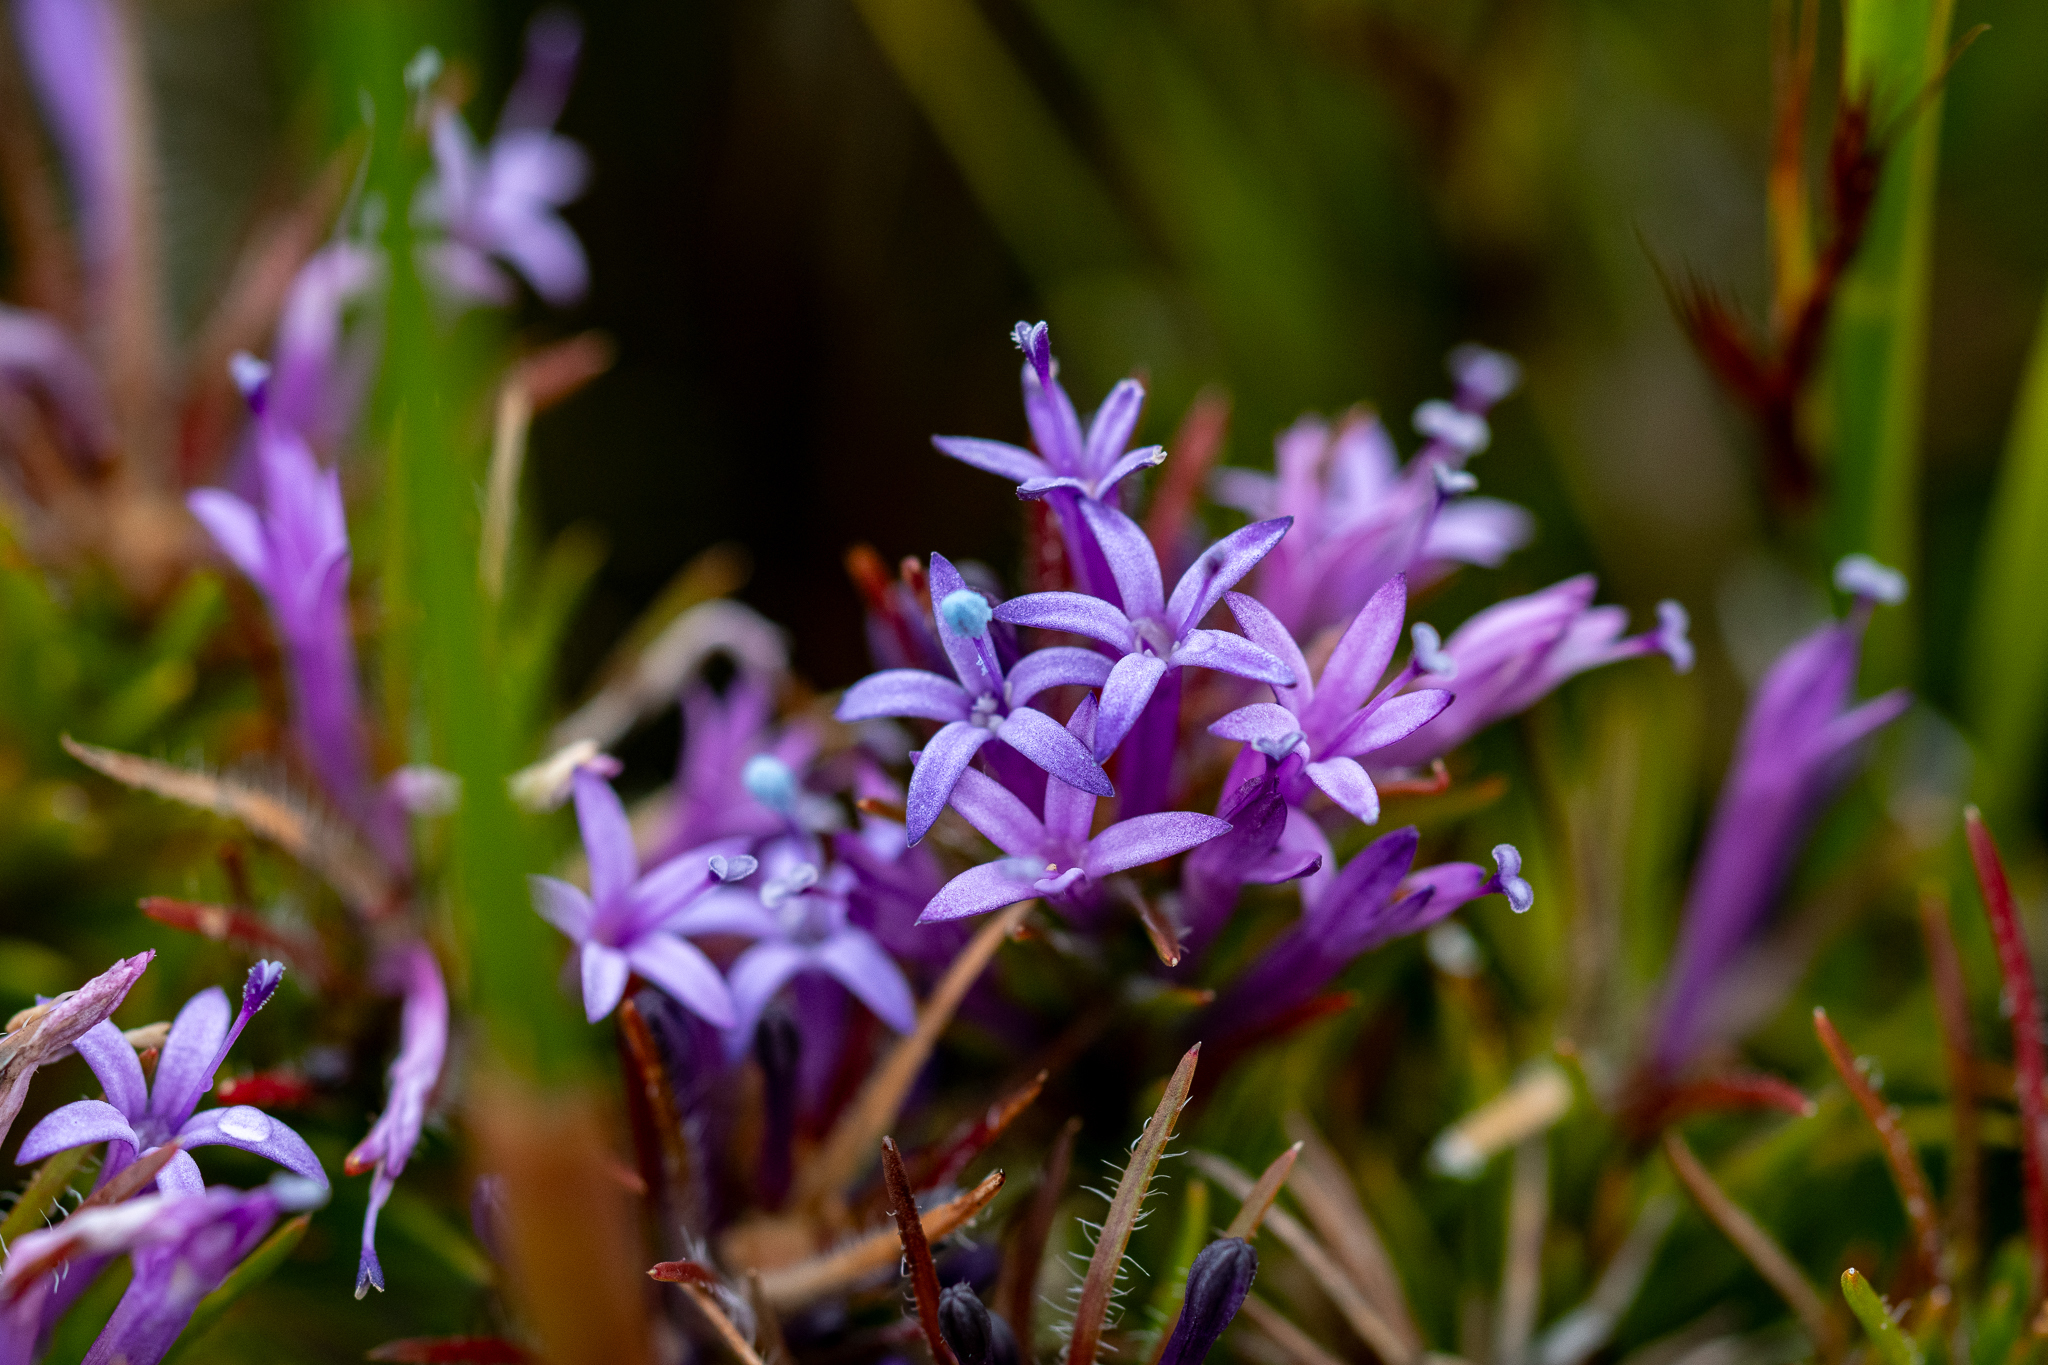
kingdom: Plantae
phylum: Tracheophyta
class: Magnoliopsida
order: Asterales
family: Campanulaceae
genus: Merciera
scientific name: Merciera azurea
